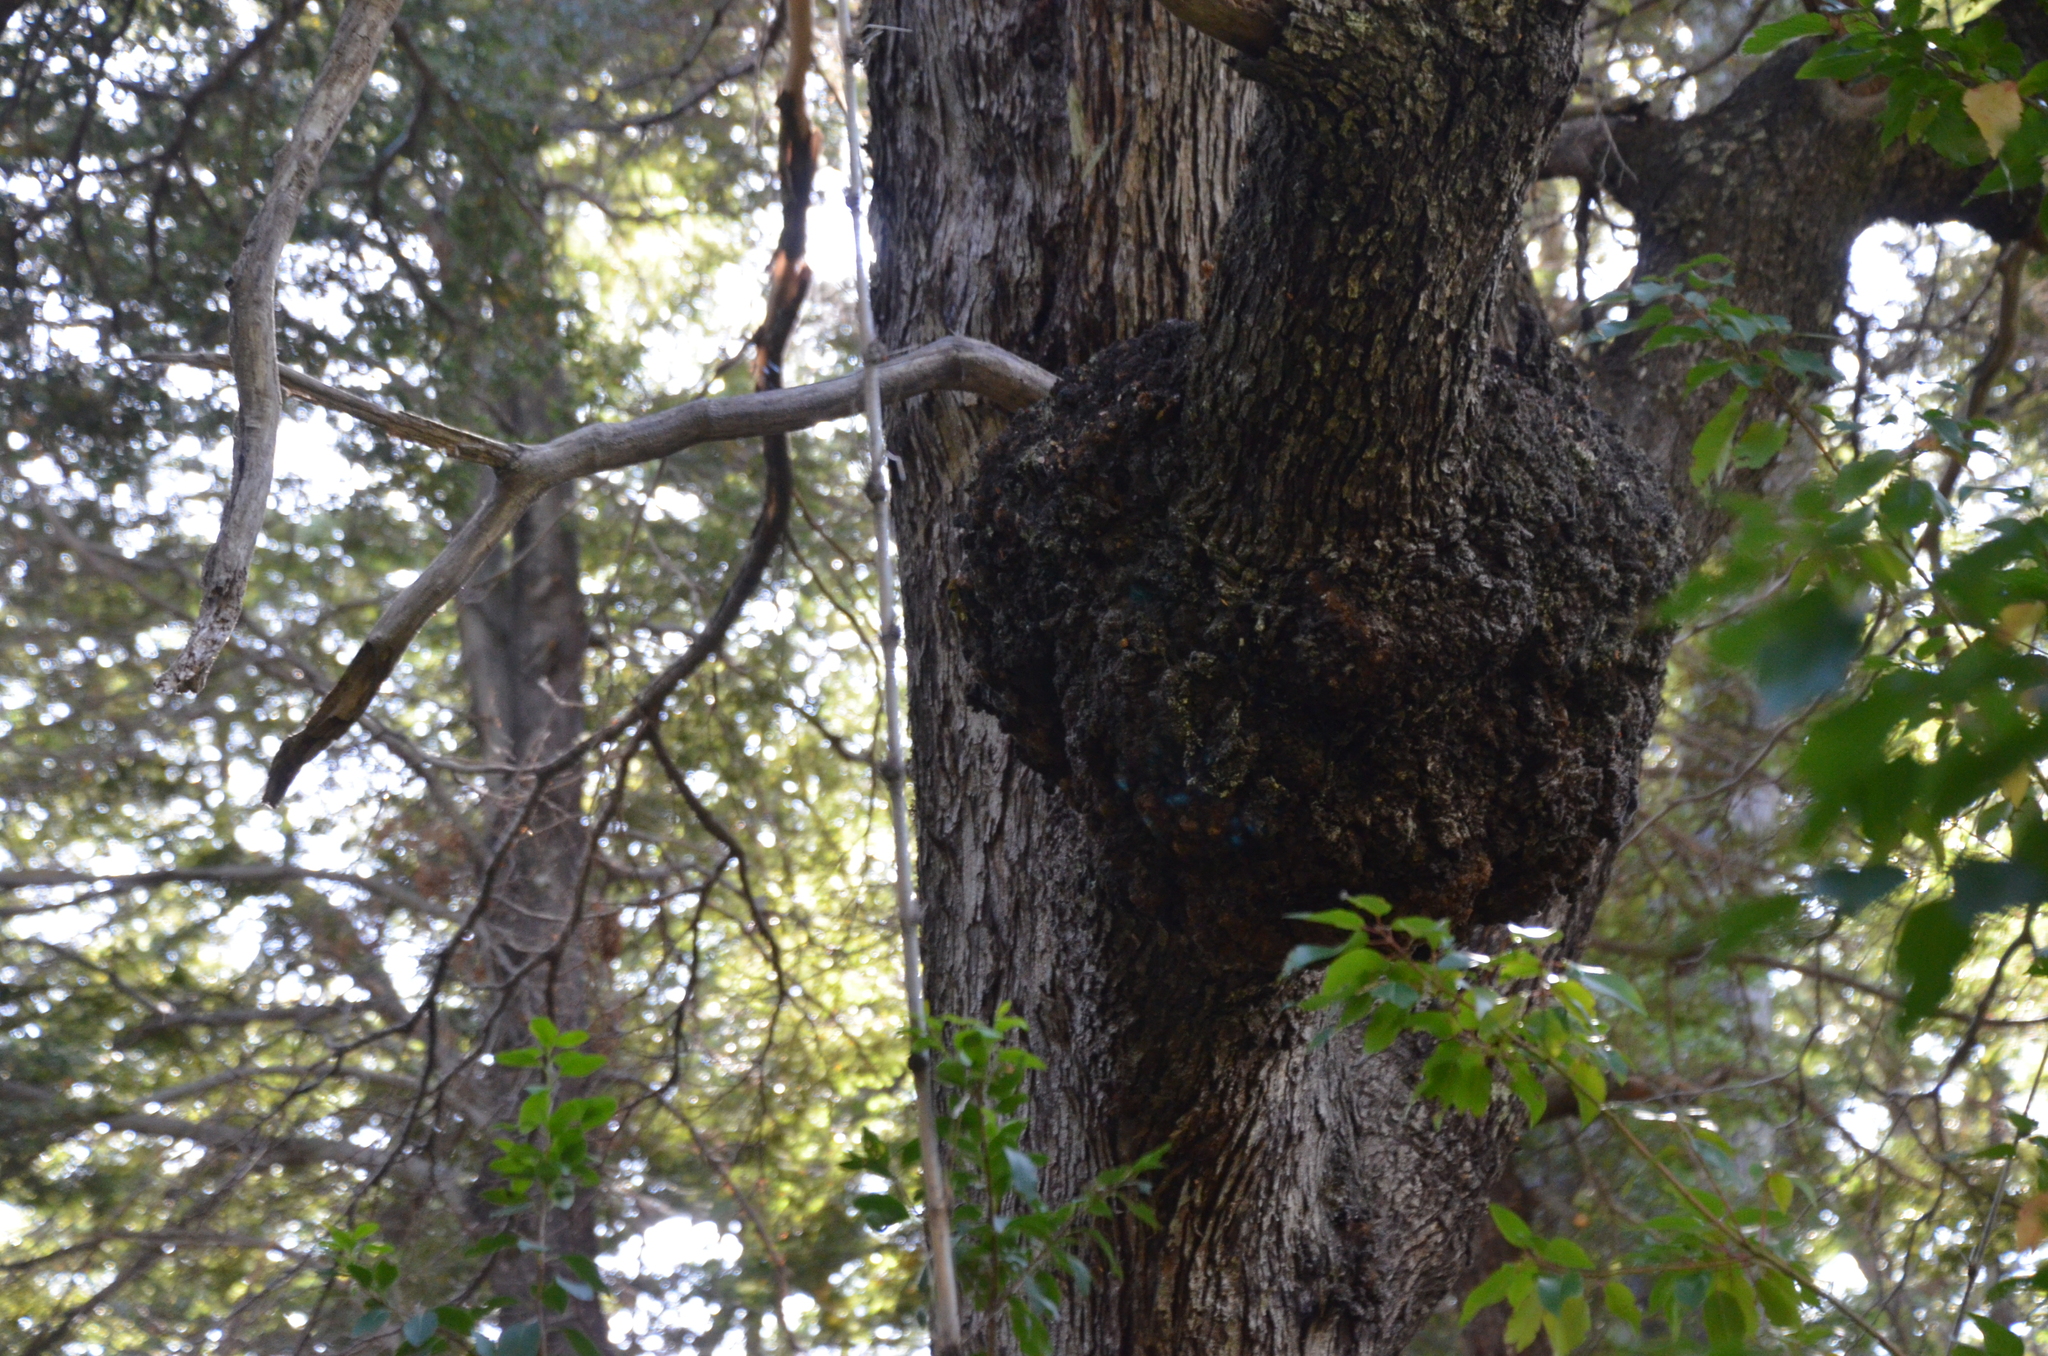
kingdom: Fungi
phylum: Ascomycota
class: Leotiomycetes
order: Cyttariales
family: Cyttariaceae
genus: Cyttaria
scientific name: Cyttaria hariotii
